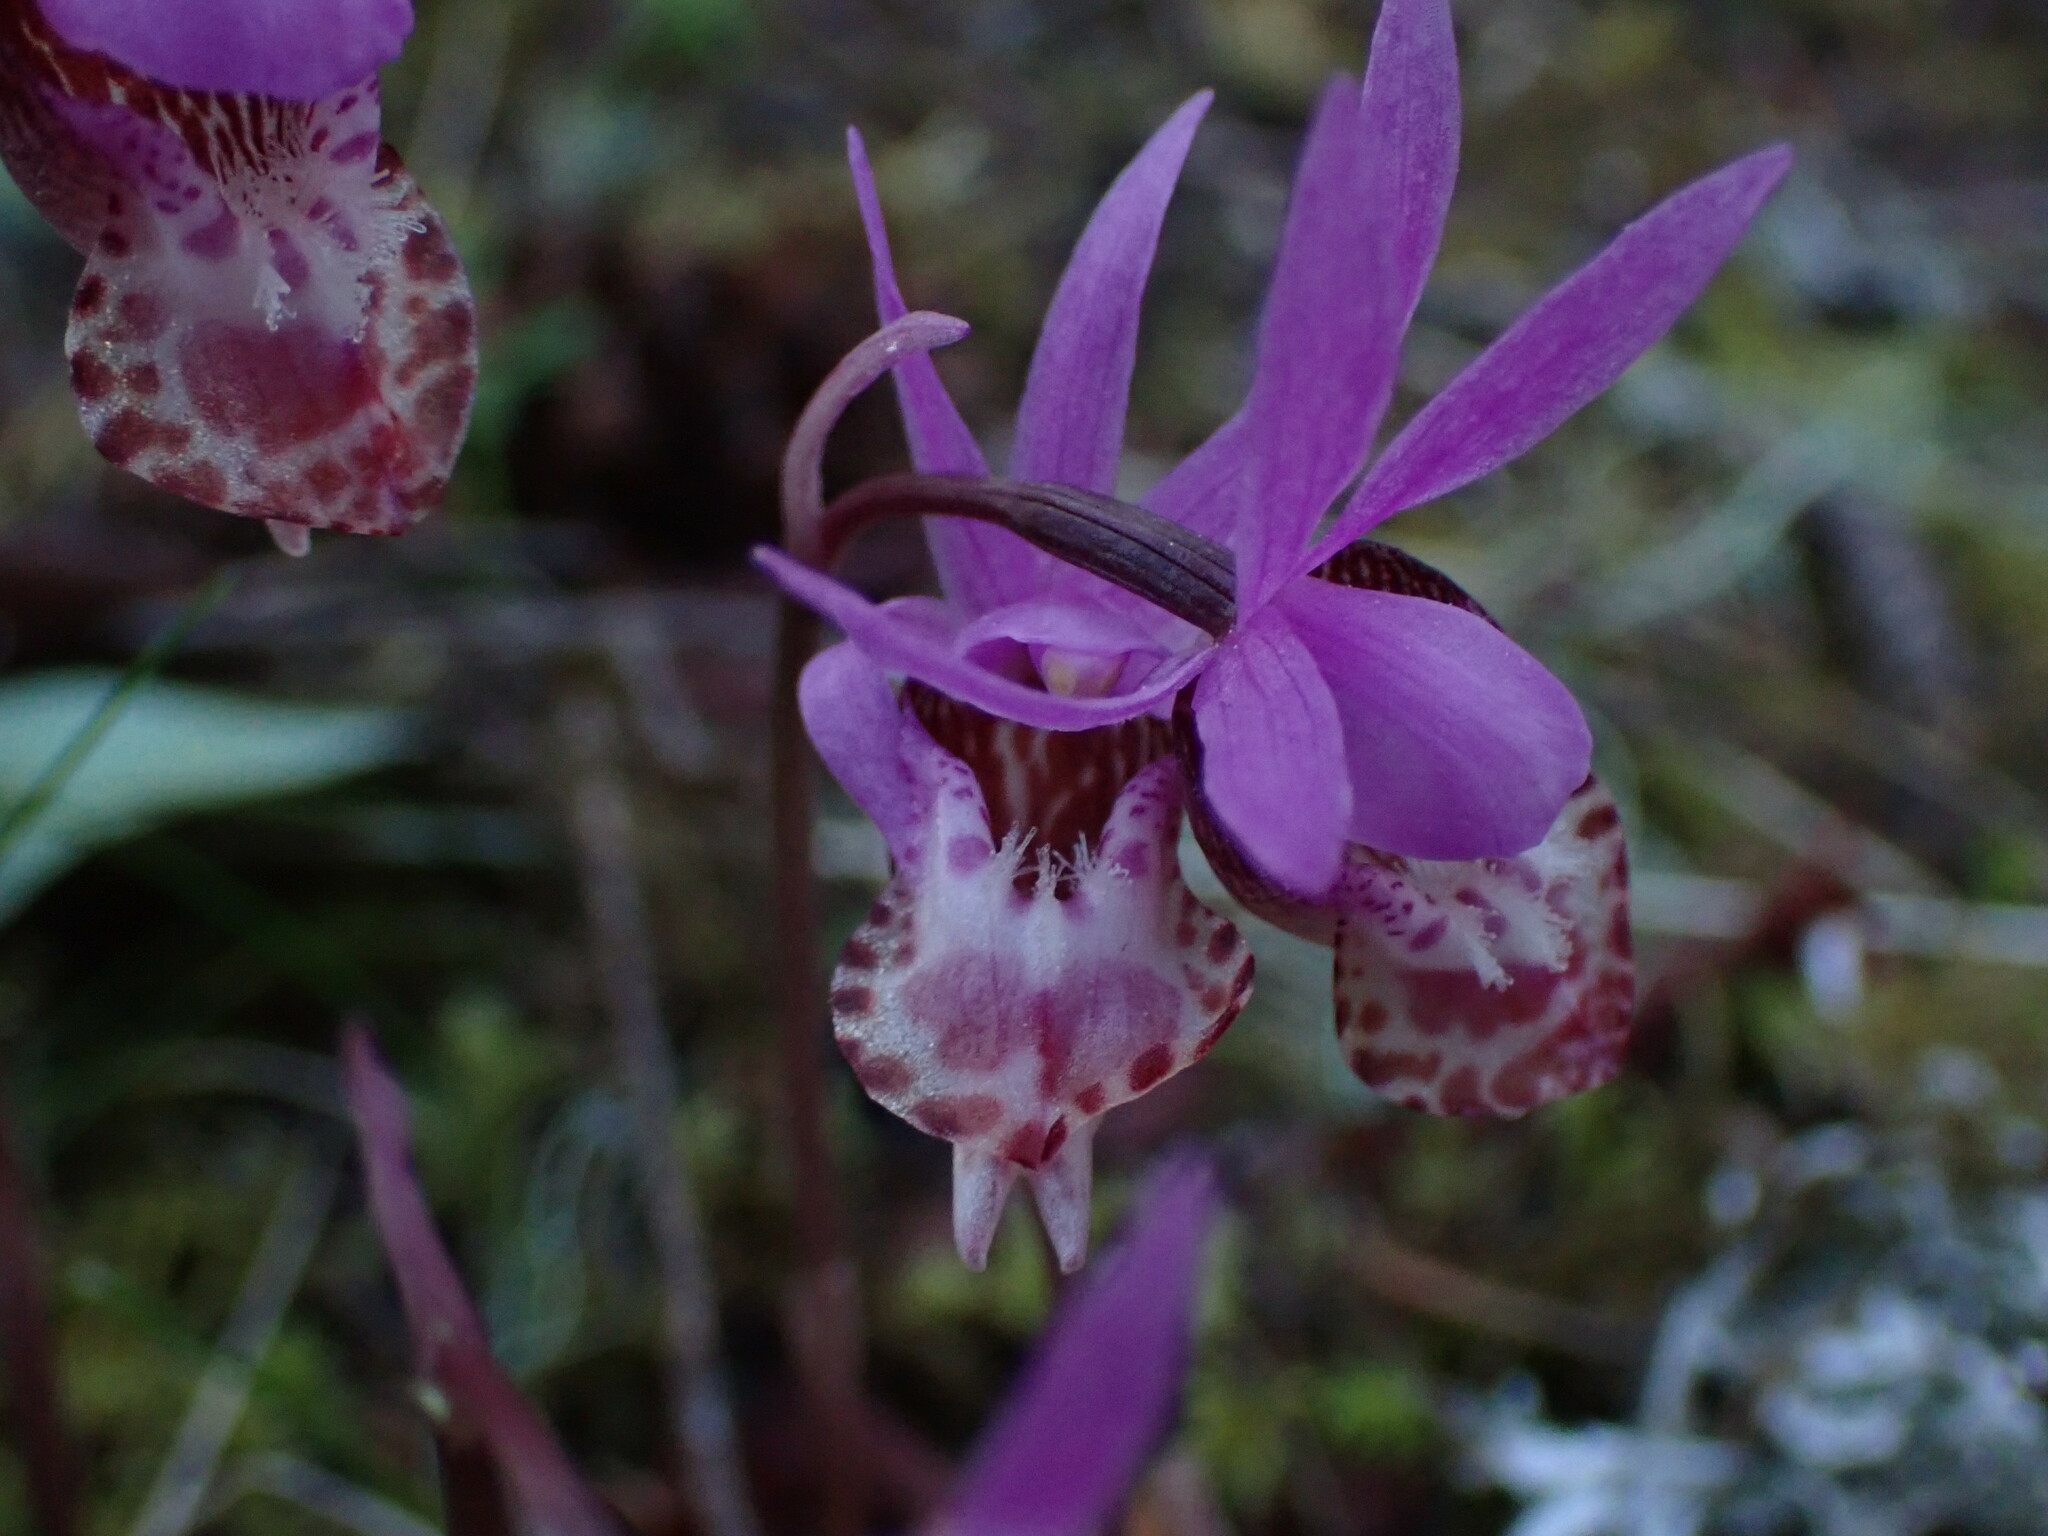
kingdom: Plantae
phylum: Tracheophyta
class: Liliopsida
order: Asparagales
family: Orchidaceae
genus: Calypso
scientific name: Calypso bulbosa
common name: Calypso
